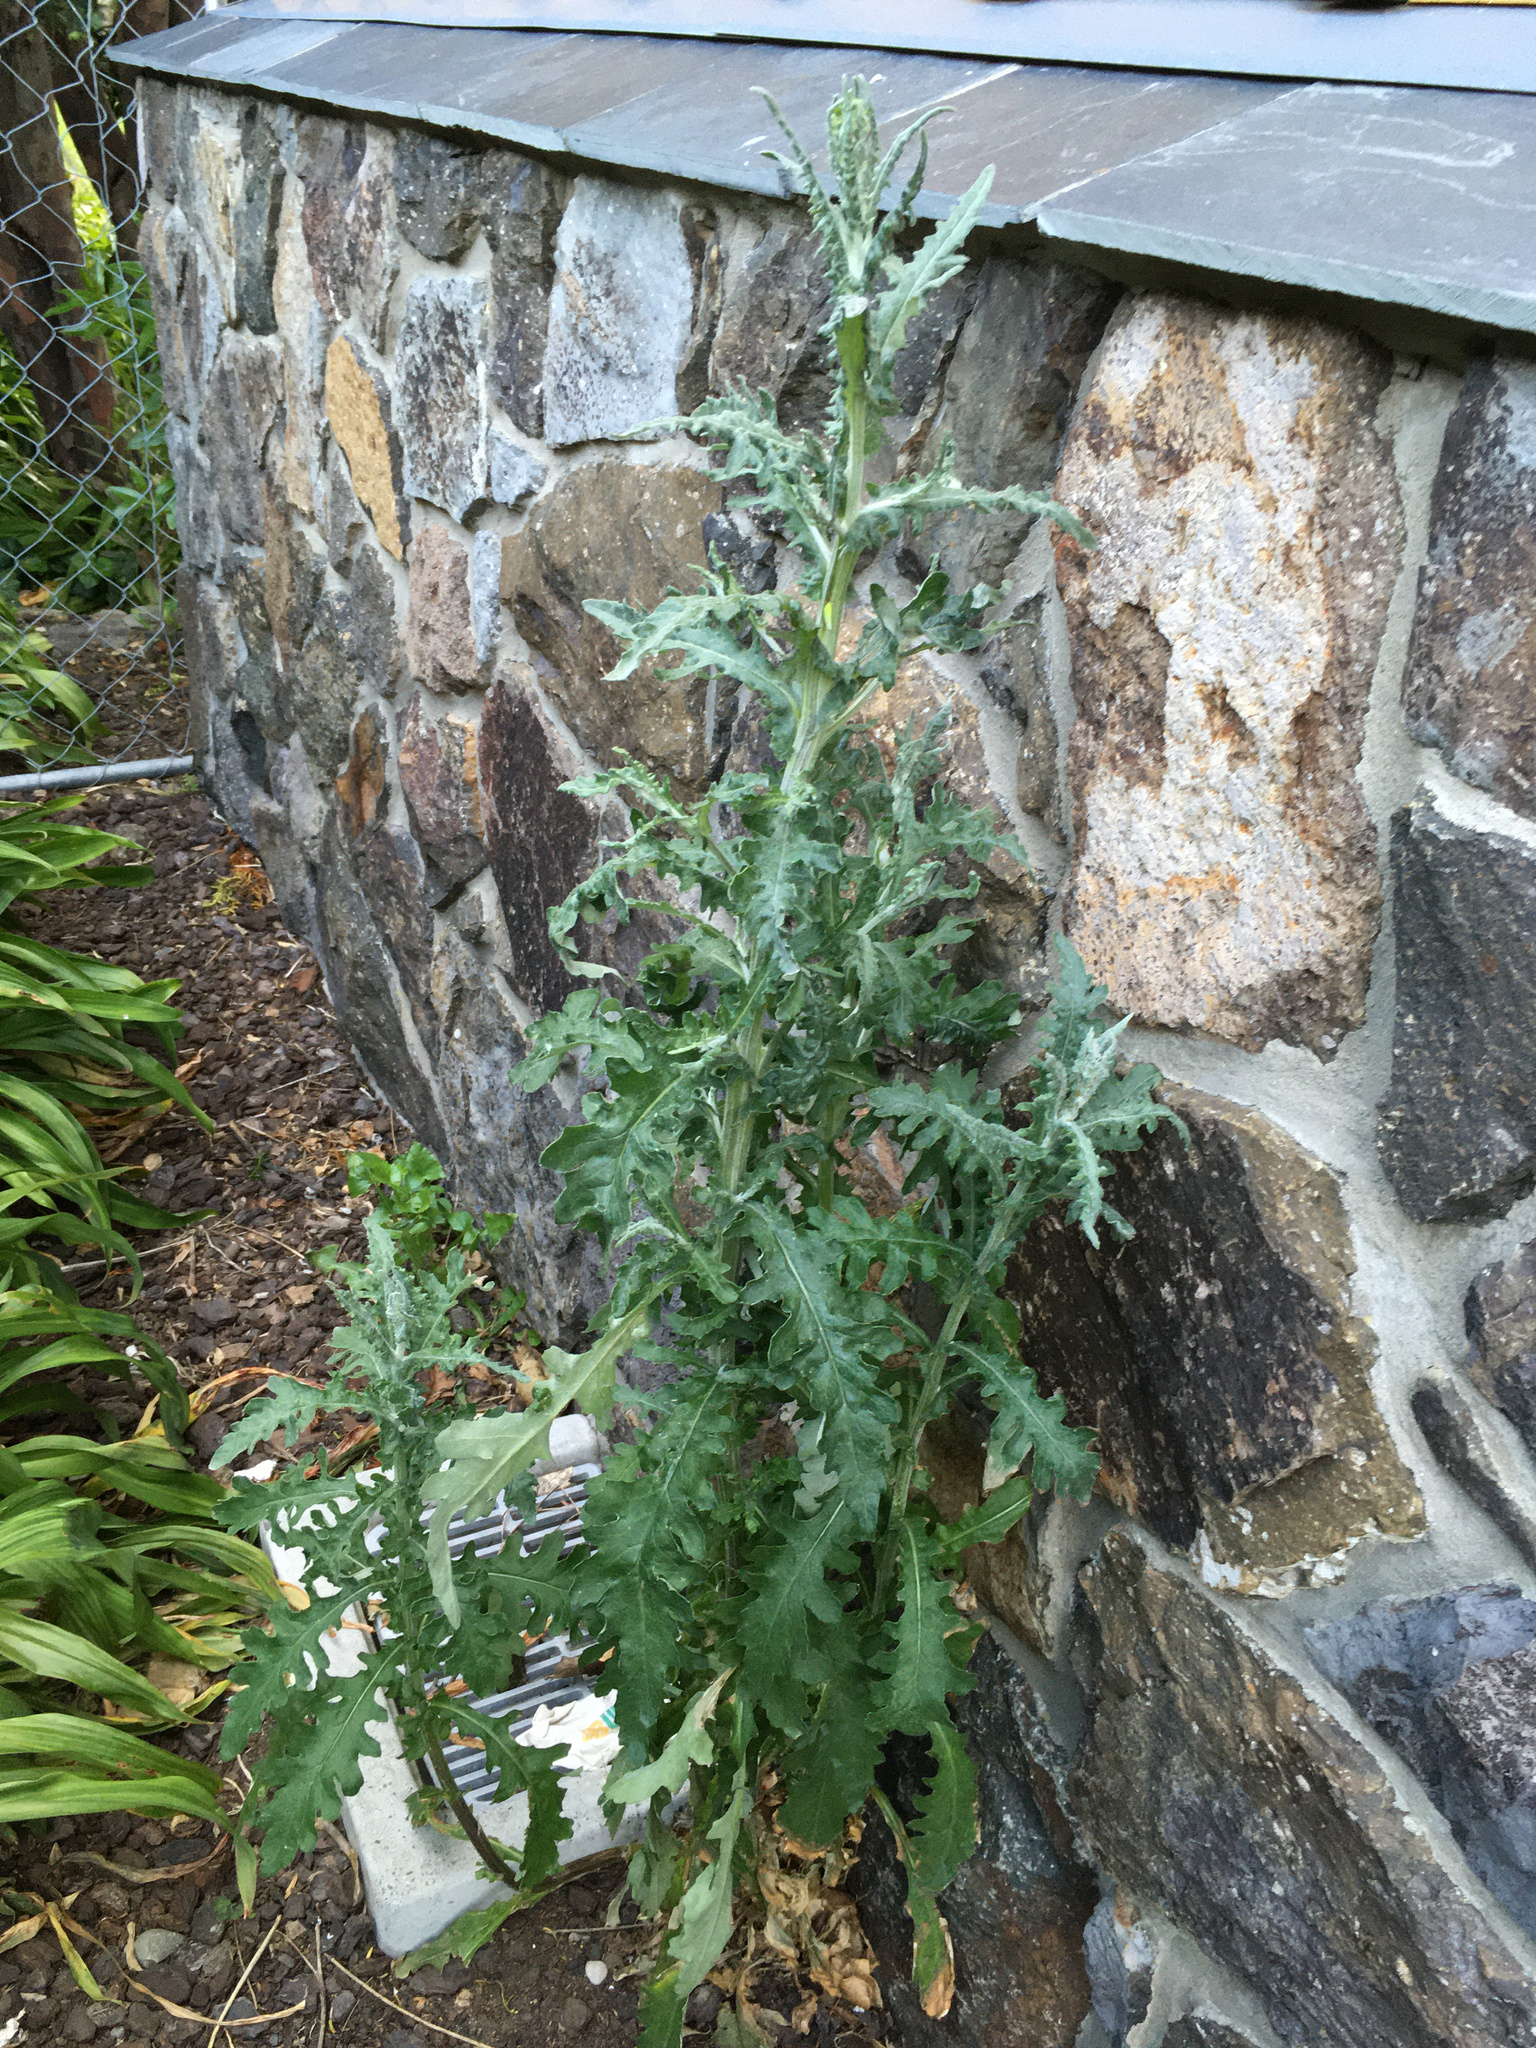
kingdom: Plantae
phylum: Tracheophyta
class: Magnoliopsida
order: Asterales
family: Asteraceae
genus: Senecio
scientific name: Senecio glomeratus
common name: Cutleaf burnweed
